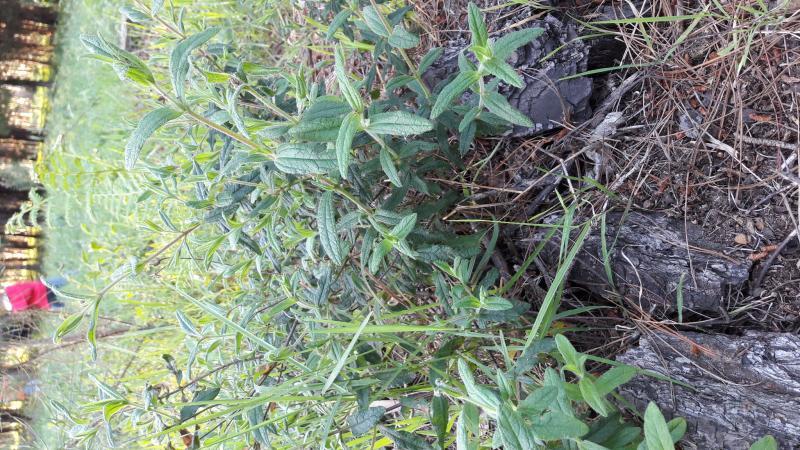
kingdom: Plantae
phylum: Tracheophyta
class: Magnoliopsida
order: Malvales
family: Cistaceae
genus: Cistus
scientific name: Cistus inflatus
